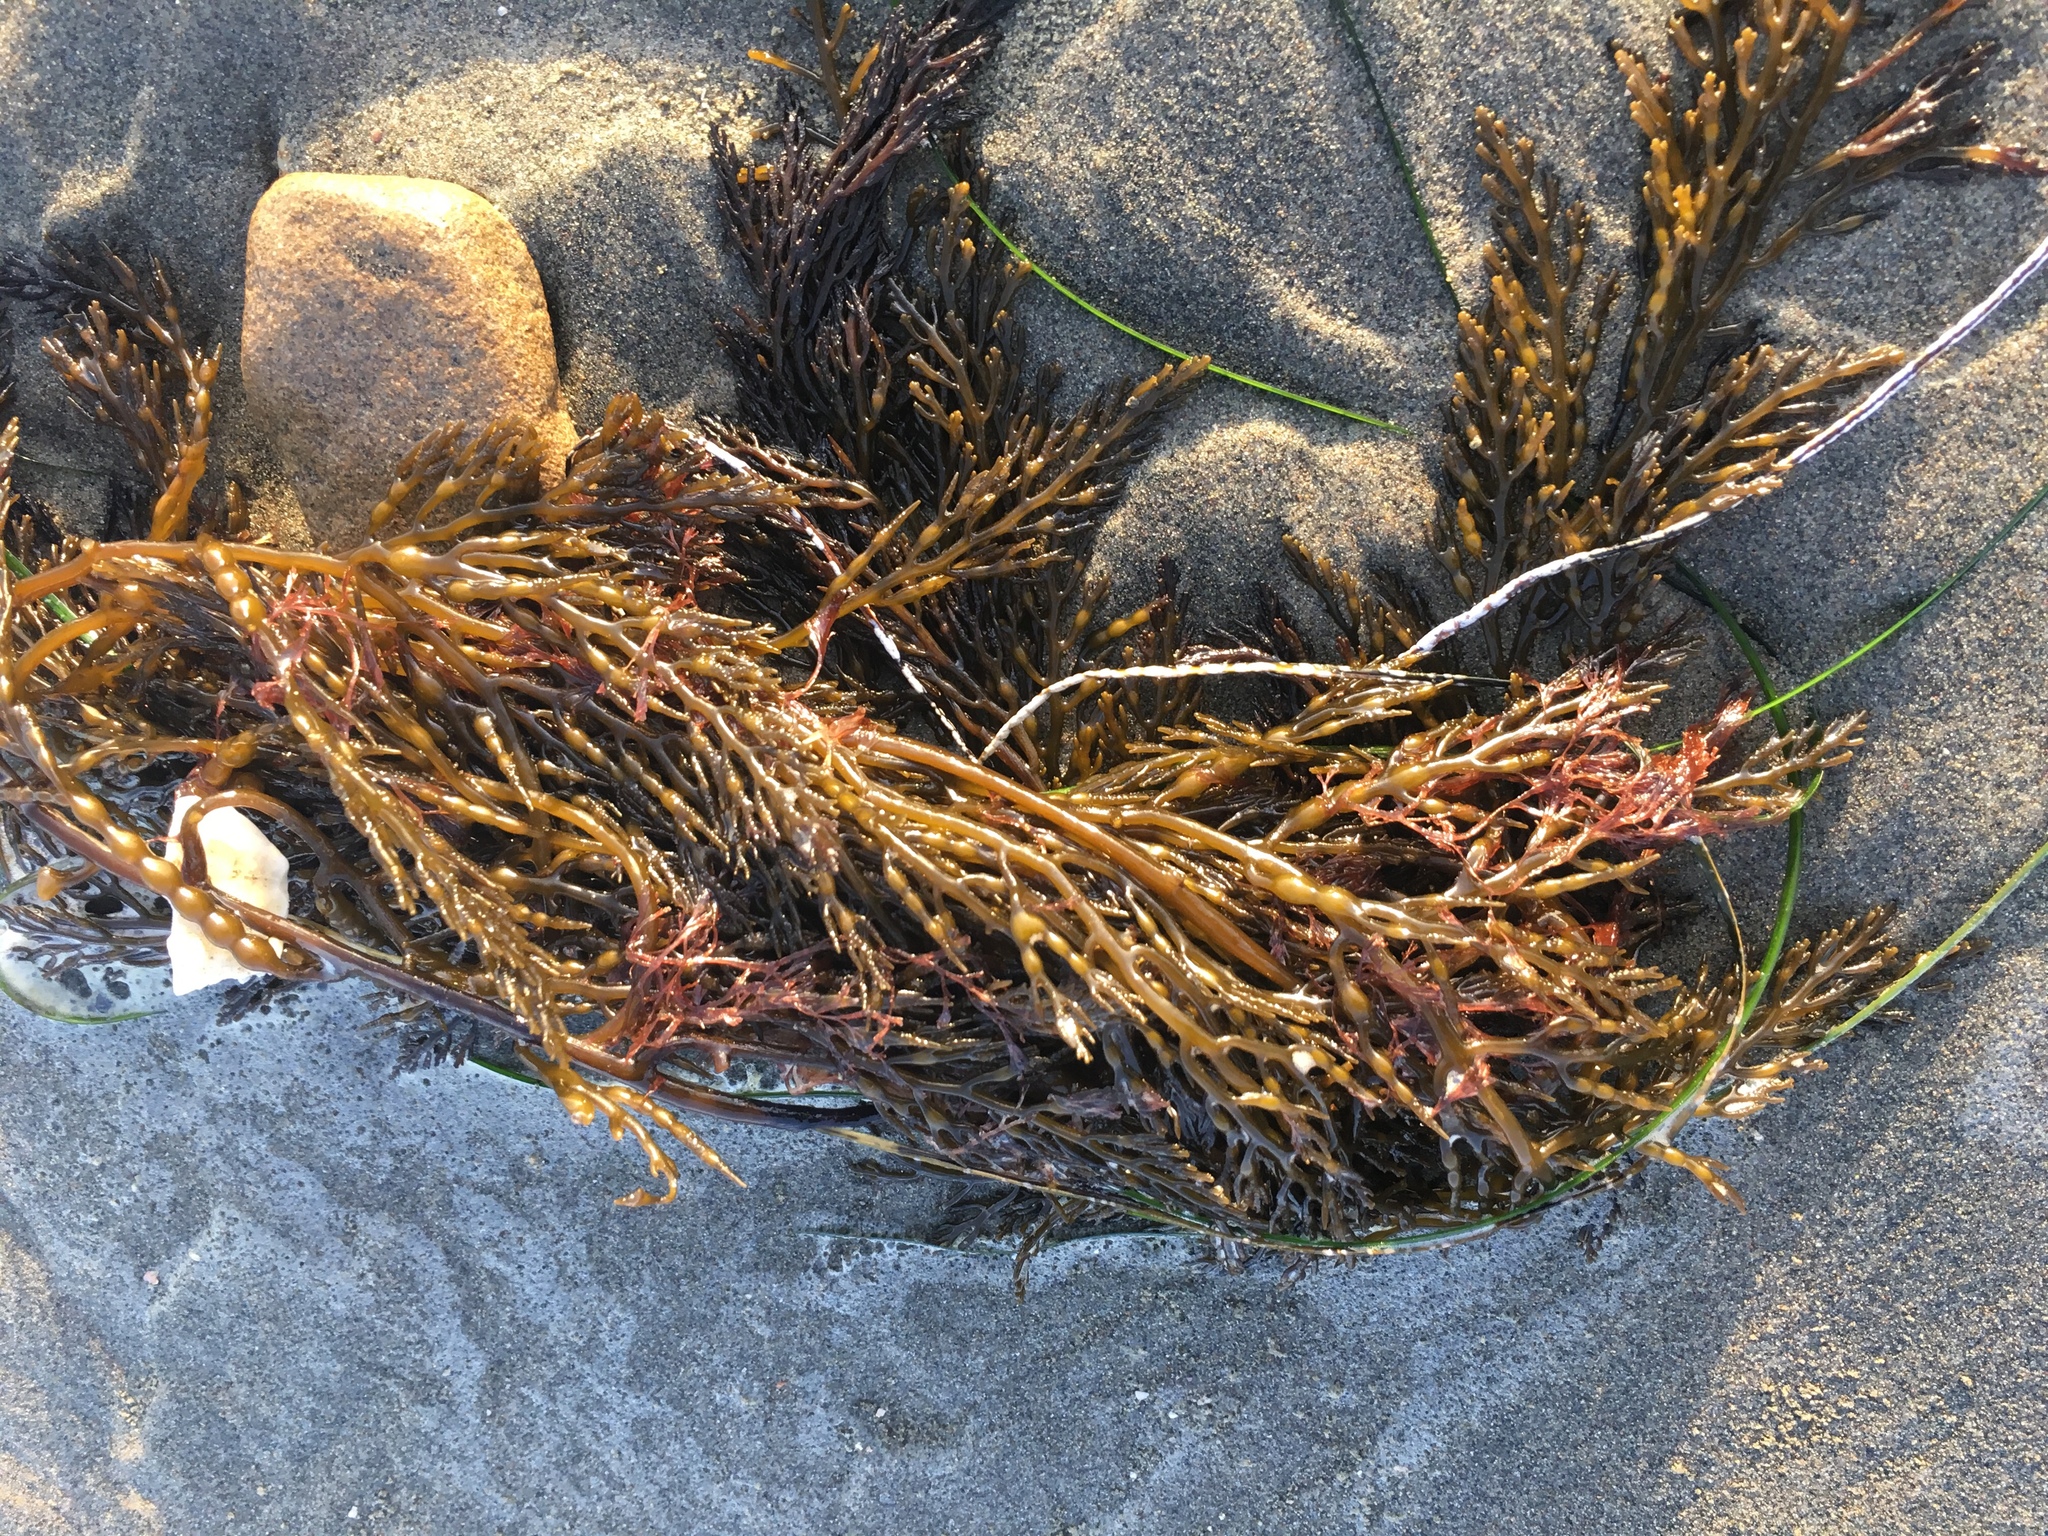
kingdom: Chromista
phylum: Ochrophyta
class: Phaeophyceae
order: Fucales
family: Sargassaceae
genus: Stephanocystis
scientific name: Stephanocystis
